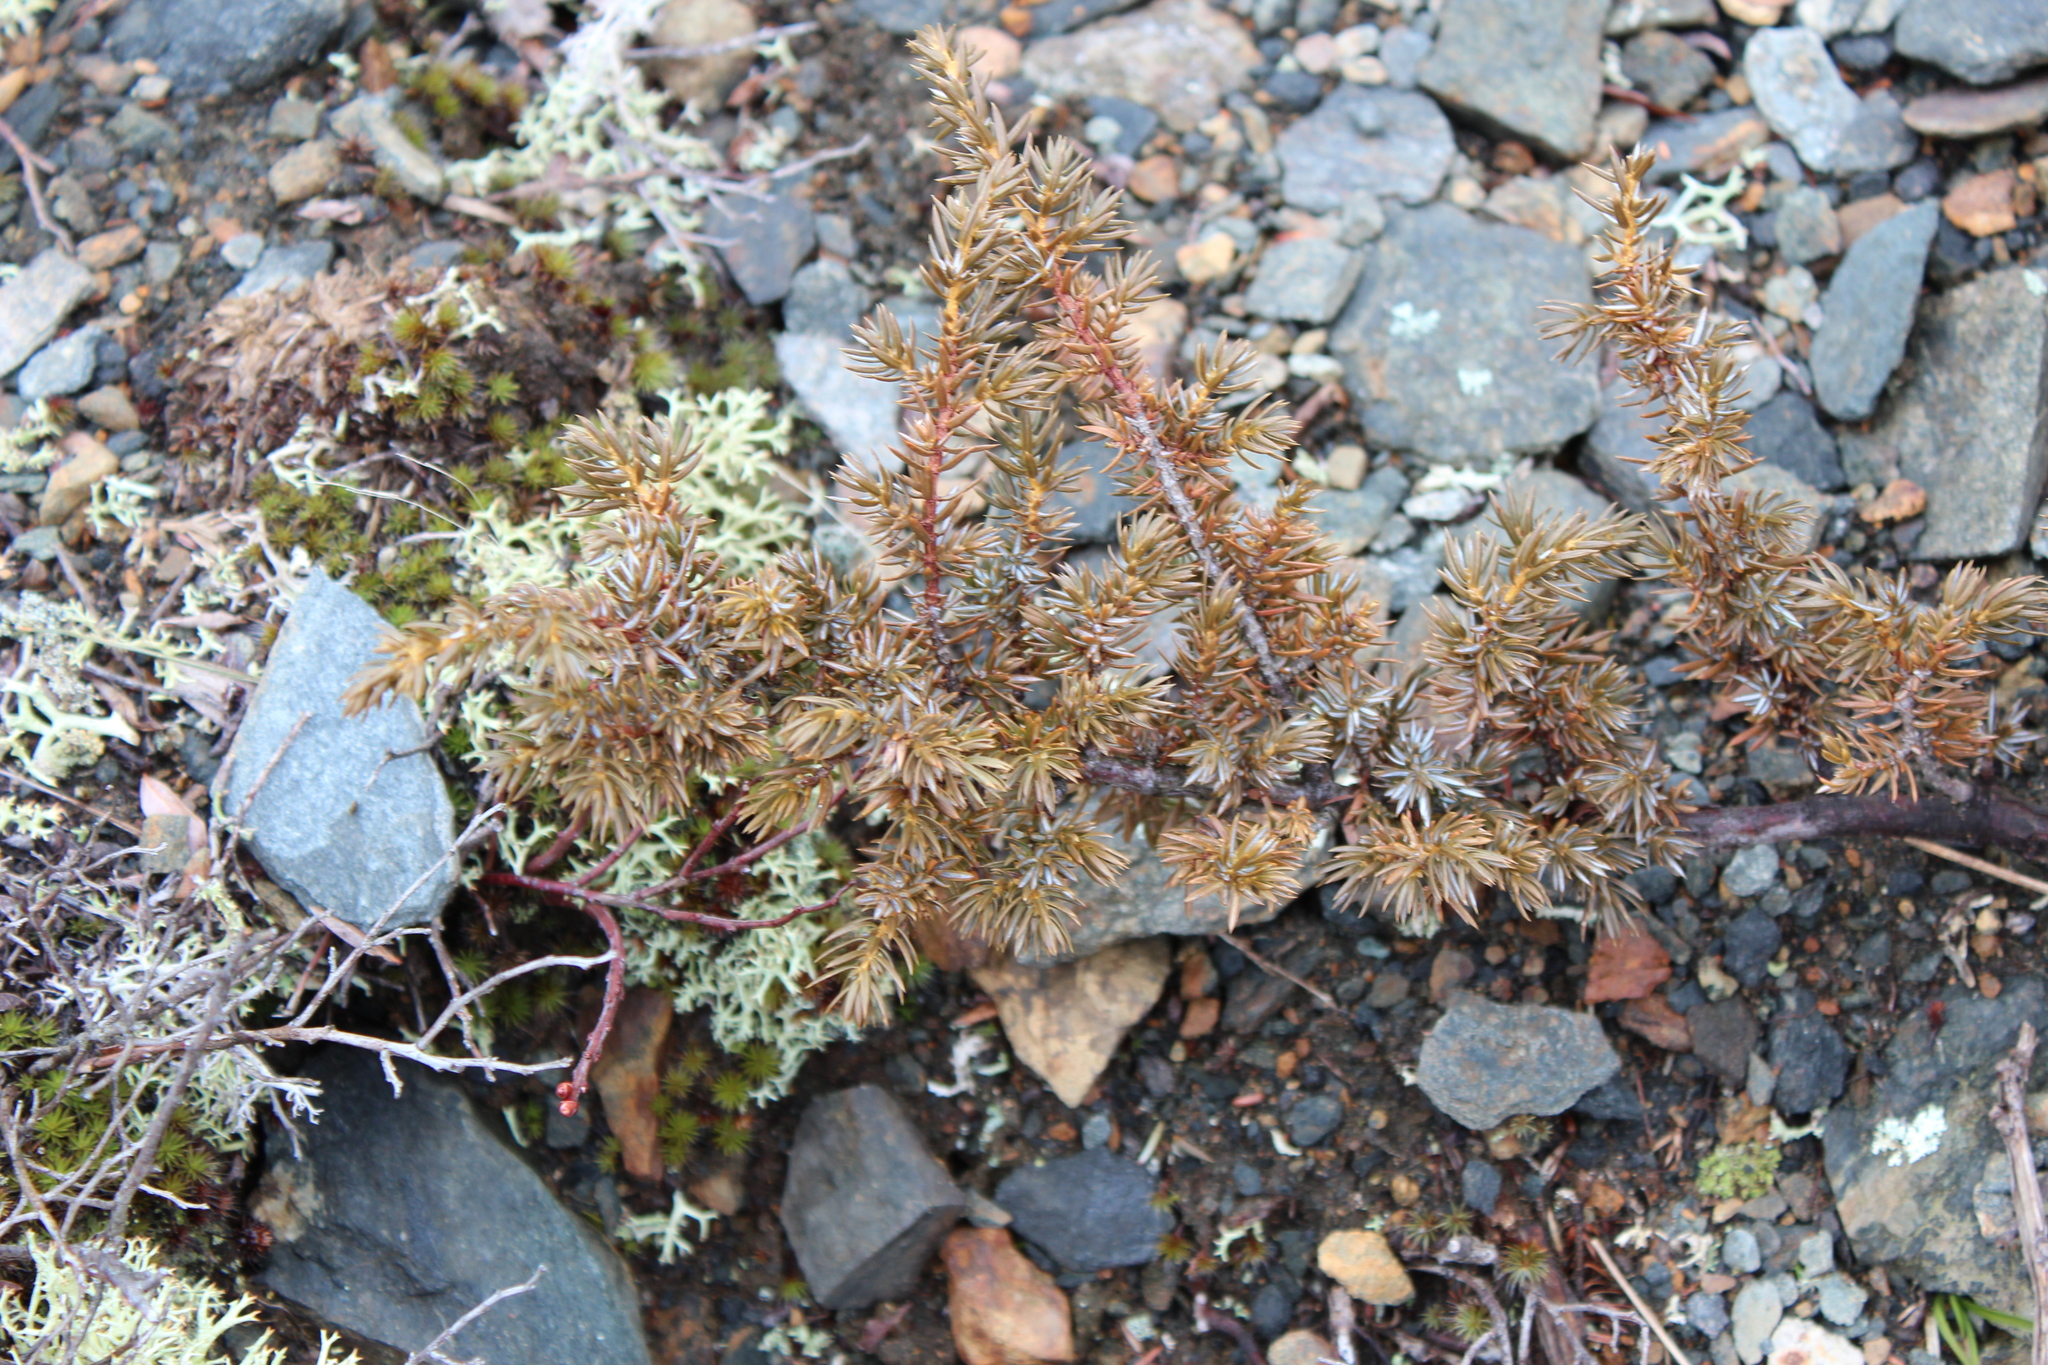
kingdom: Plantae
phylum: Tracheophyta
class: Pinopsida
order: Pinales
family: Cupressaceae
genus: Juniperus
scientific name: Juniperus communis
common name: Common juniper
